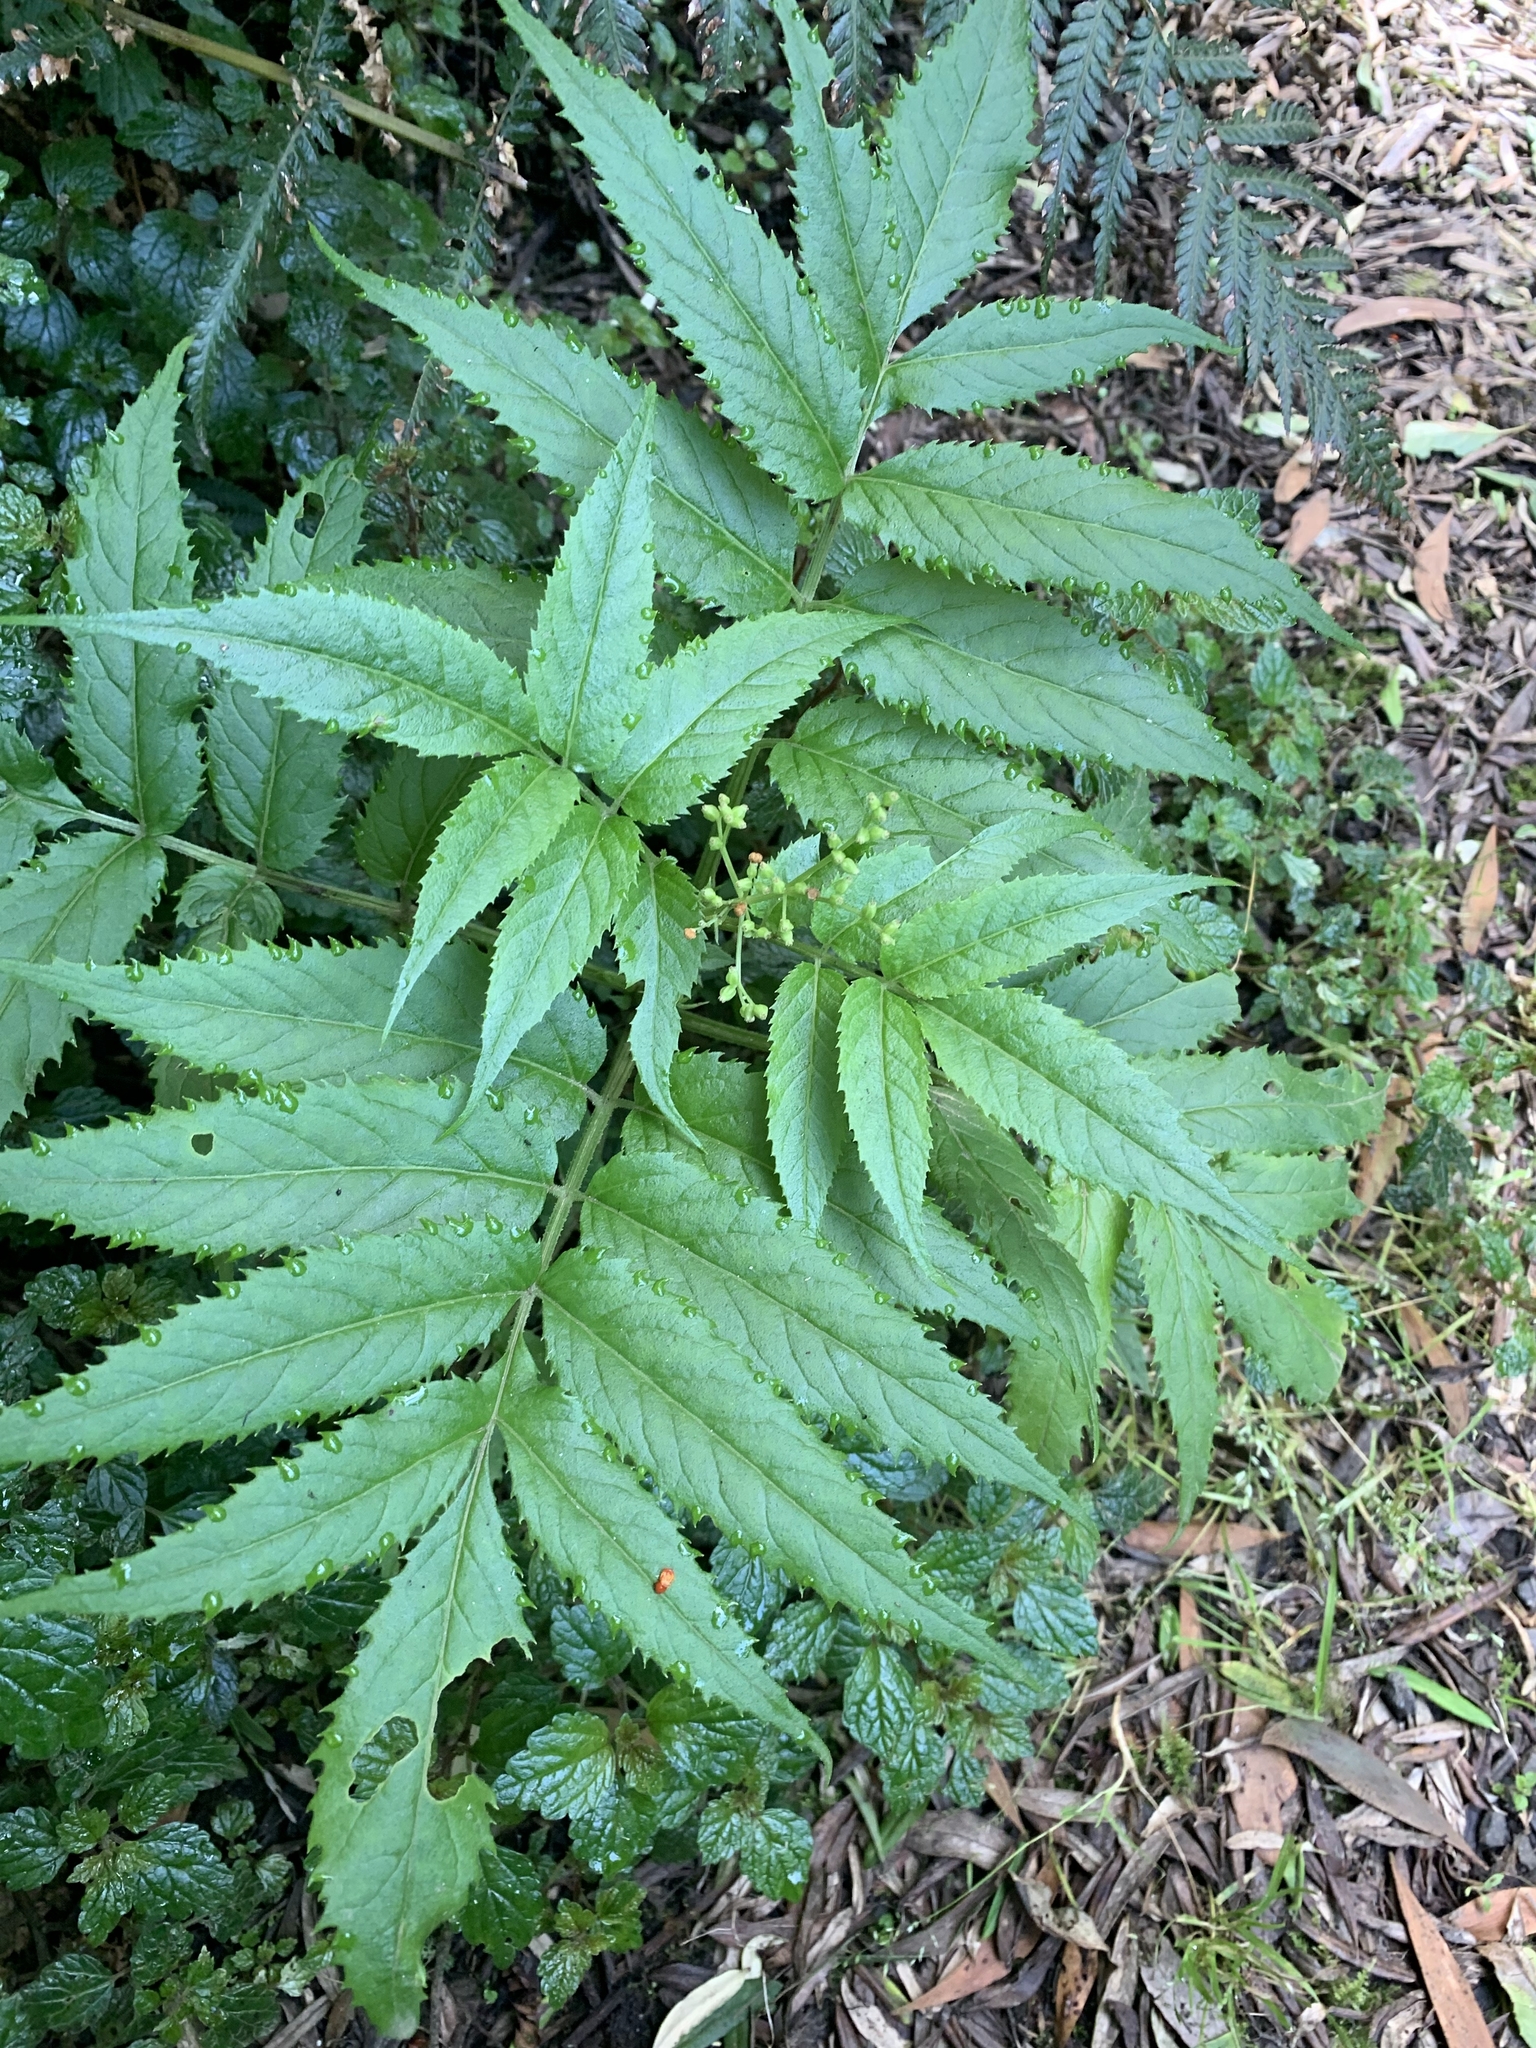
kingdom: Plantae
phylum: Tracheophyta
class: Magnoliopsida
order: Dipsacales
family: Viburnaceae
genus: Sambucus
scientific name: Sambucus gaudichaudiana
